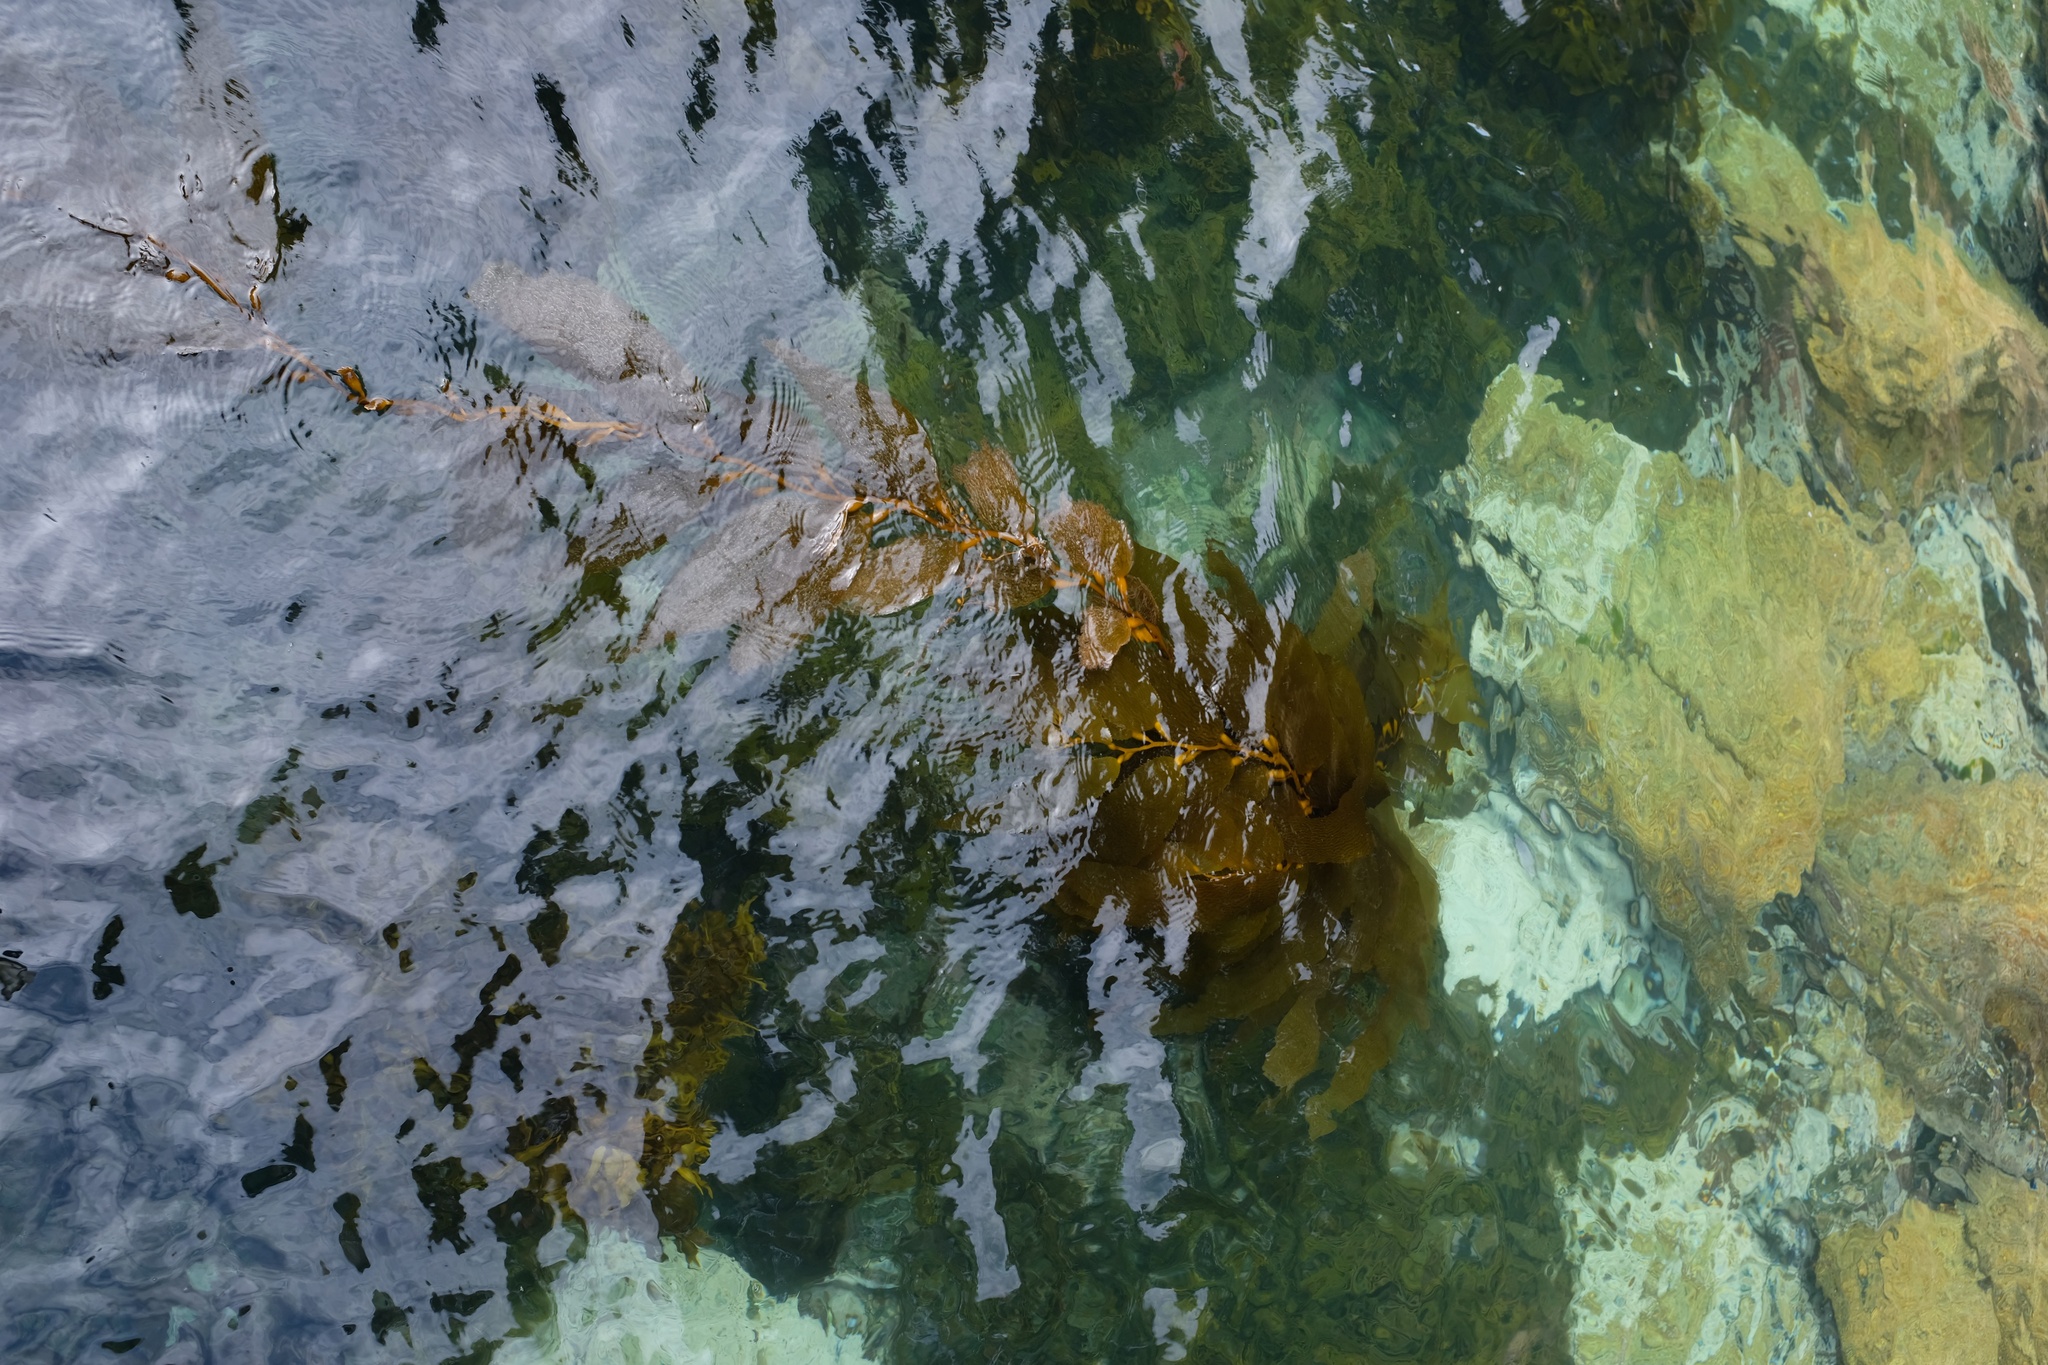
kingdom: Chromista
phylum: Ochrophyta
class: Phaeophyceae
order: Laminariales
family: Laminariaceae
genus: Macrocystis
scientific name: Macrocystis pyrifera
